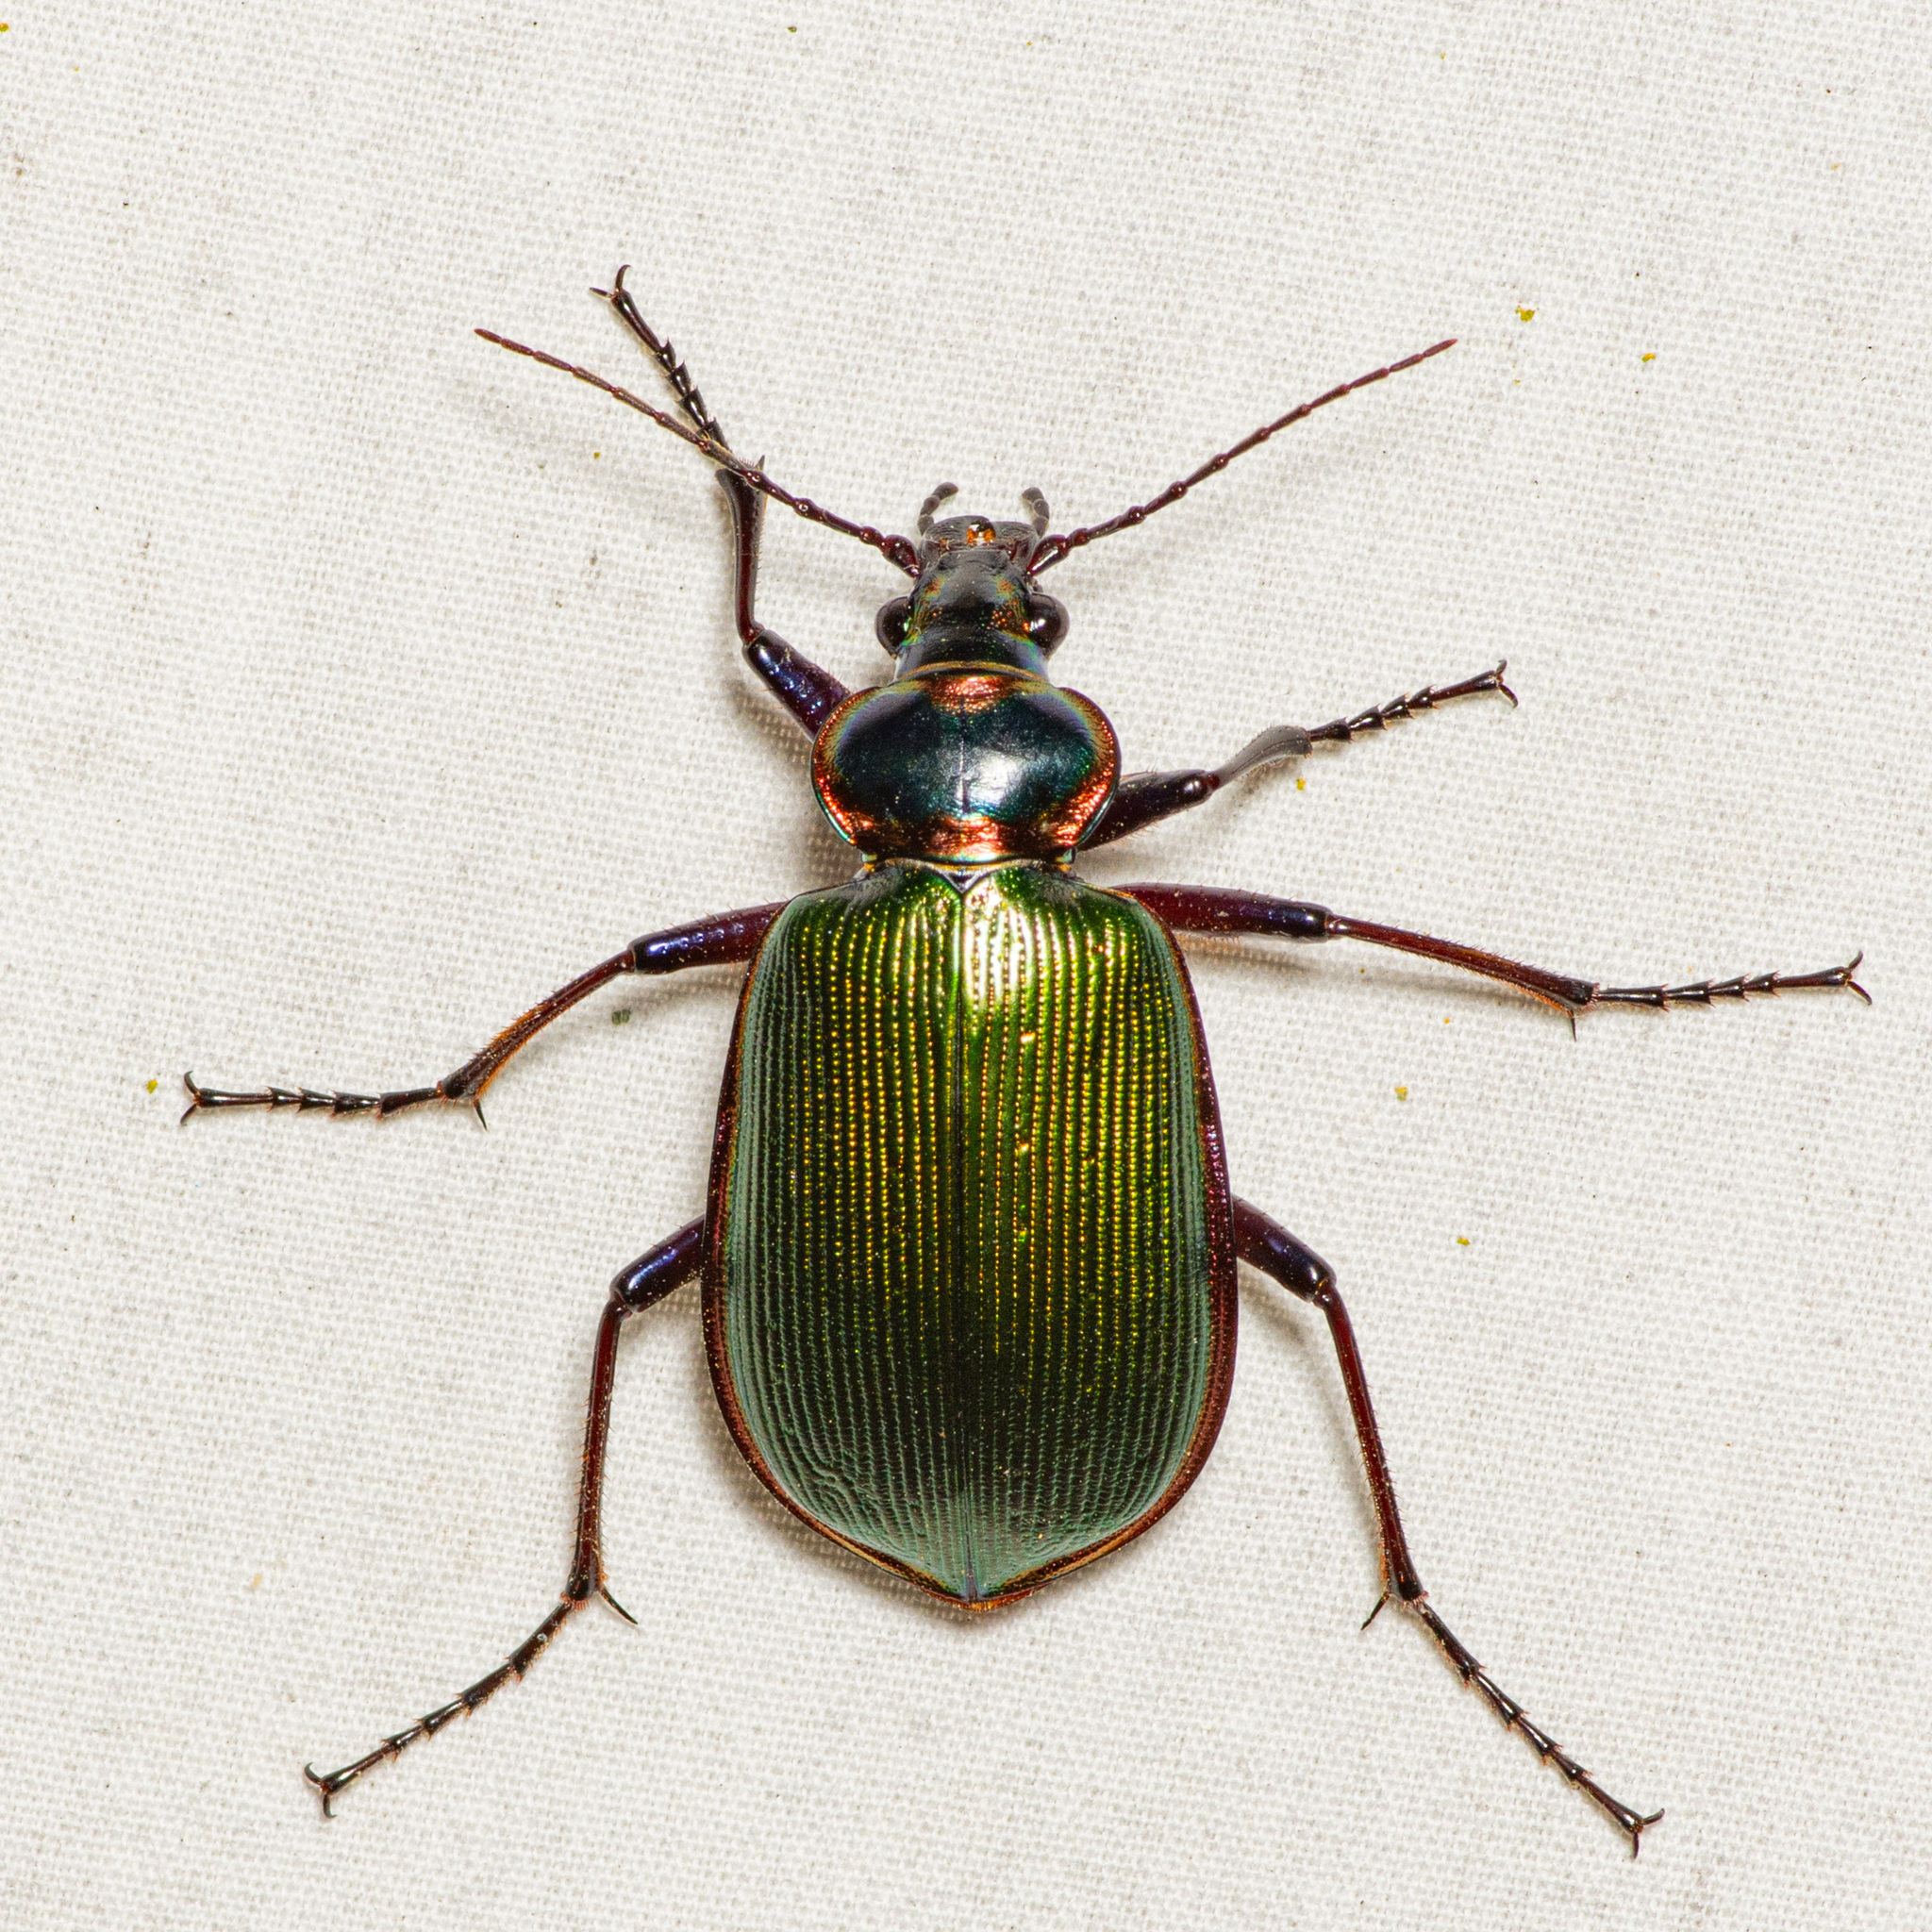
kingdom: Animalia
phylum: Arthropoda
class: Insecta
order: Coleoptera
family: Carabidae
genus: Calosoma
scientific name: Calosoma scrutator
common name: Fiery searcher beetle
